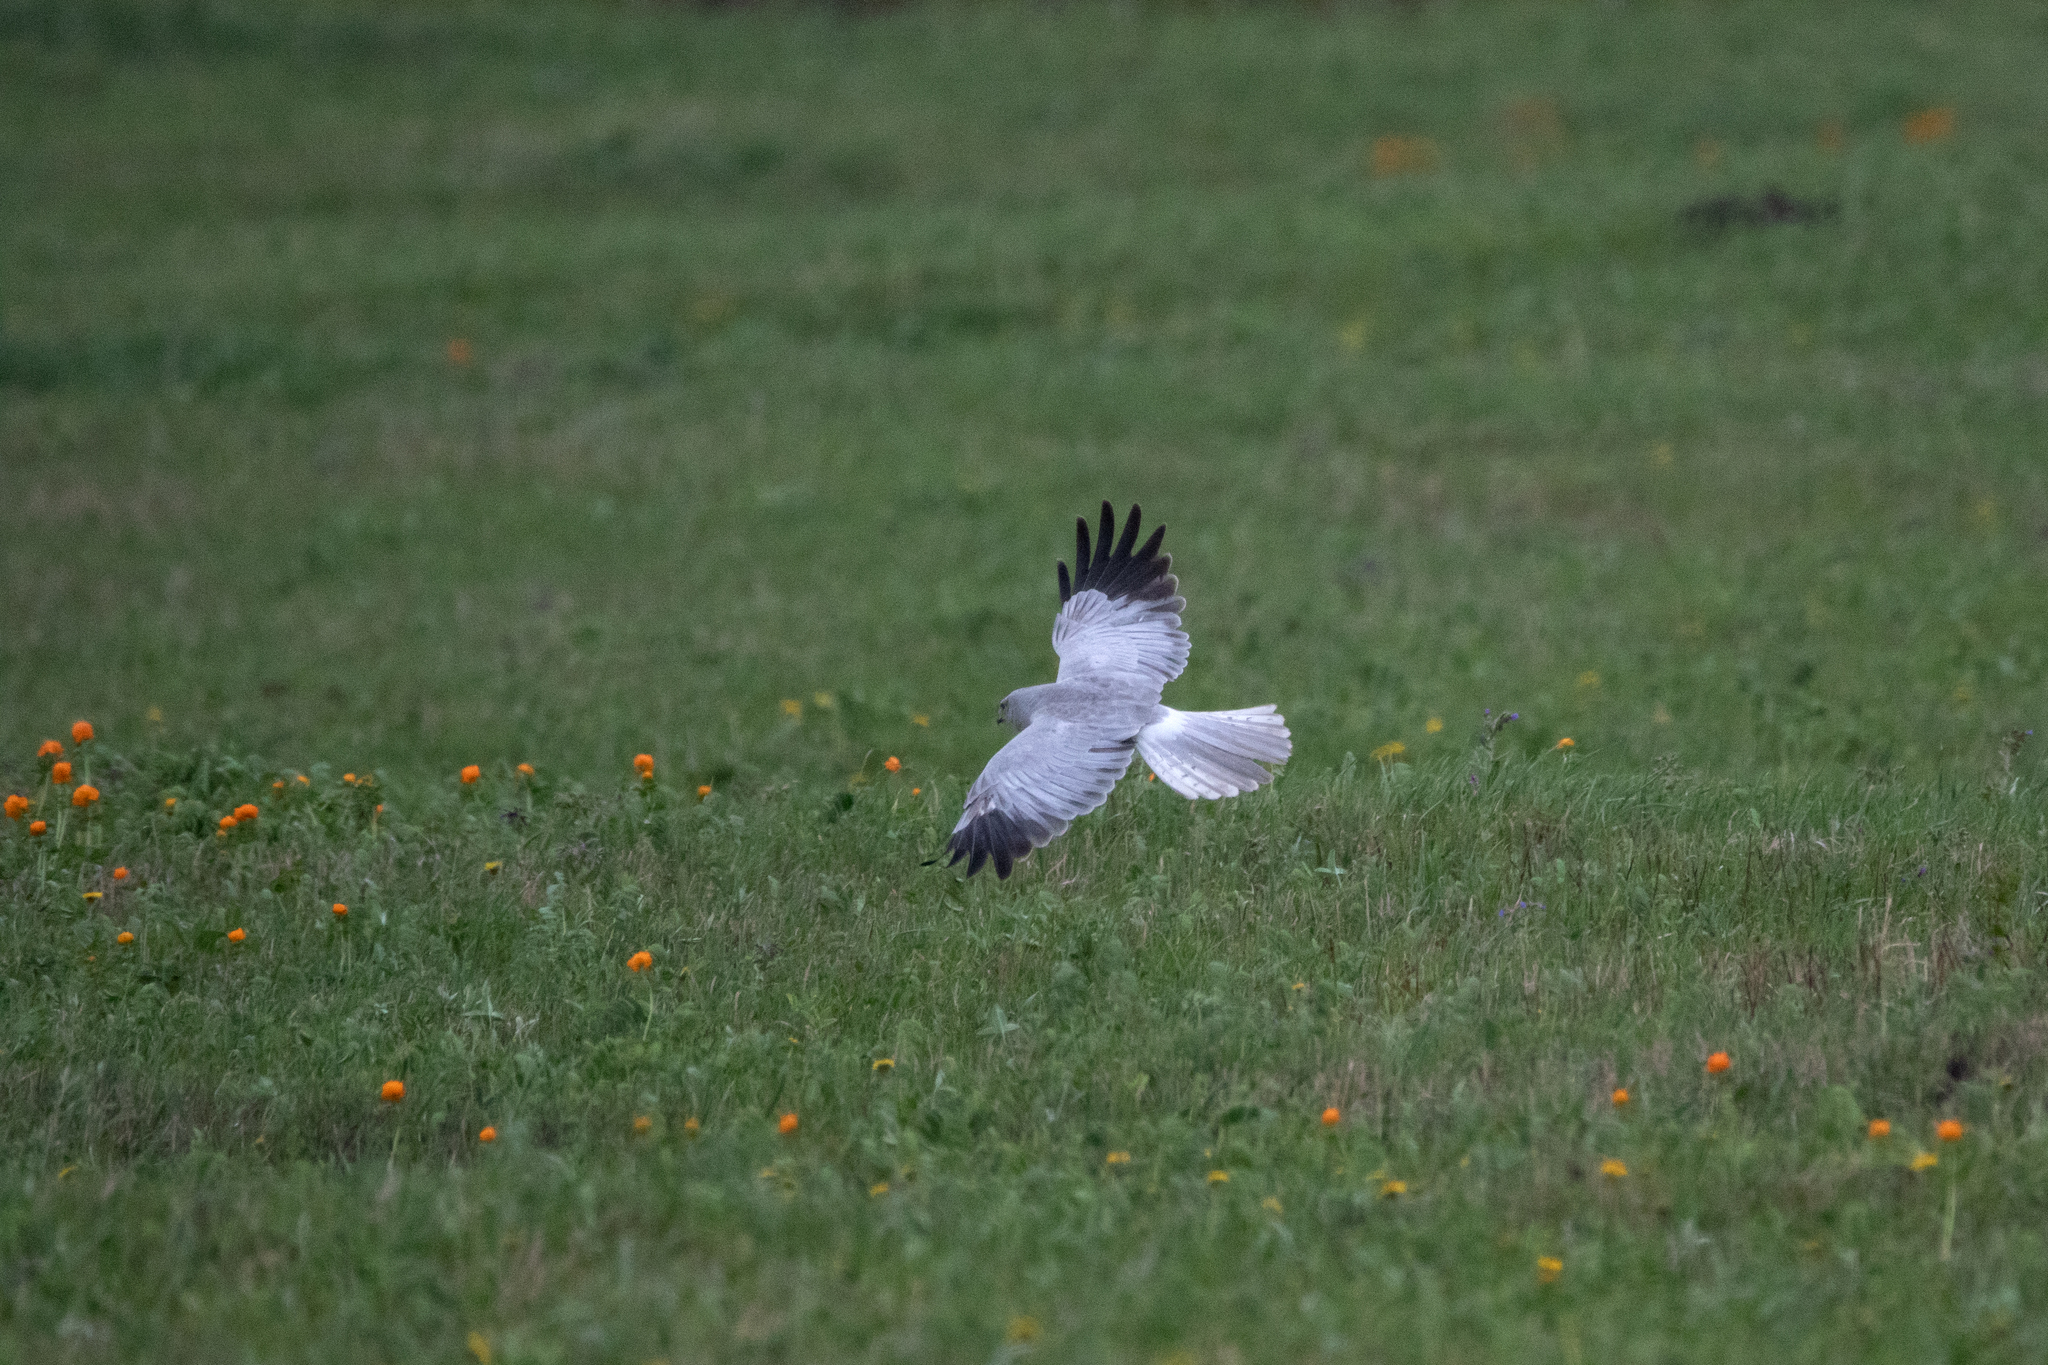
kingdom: Animalia
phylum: Chordata
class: Aves
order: Accipitriformes
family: Accipitridae
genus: Circus
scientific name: Circus cyaneus
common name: Hen harrier
